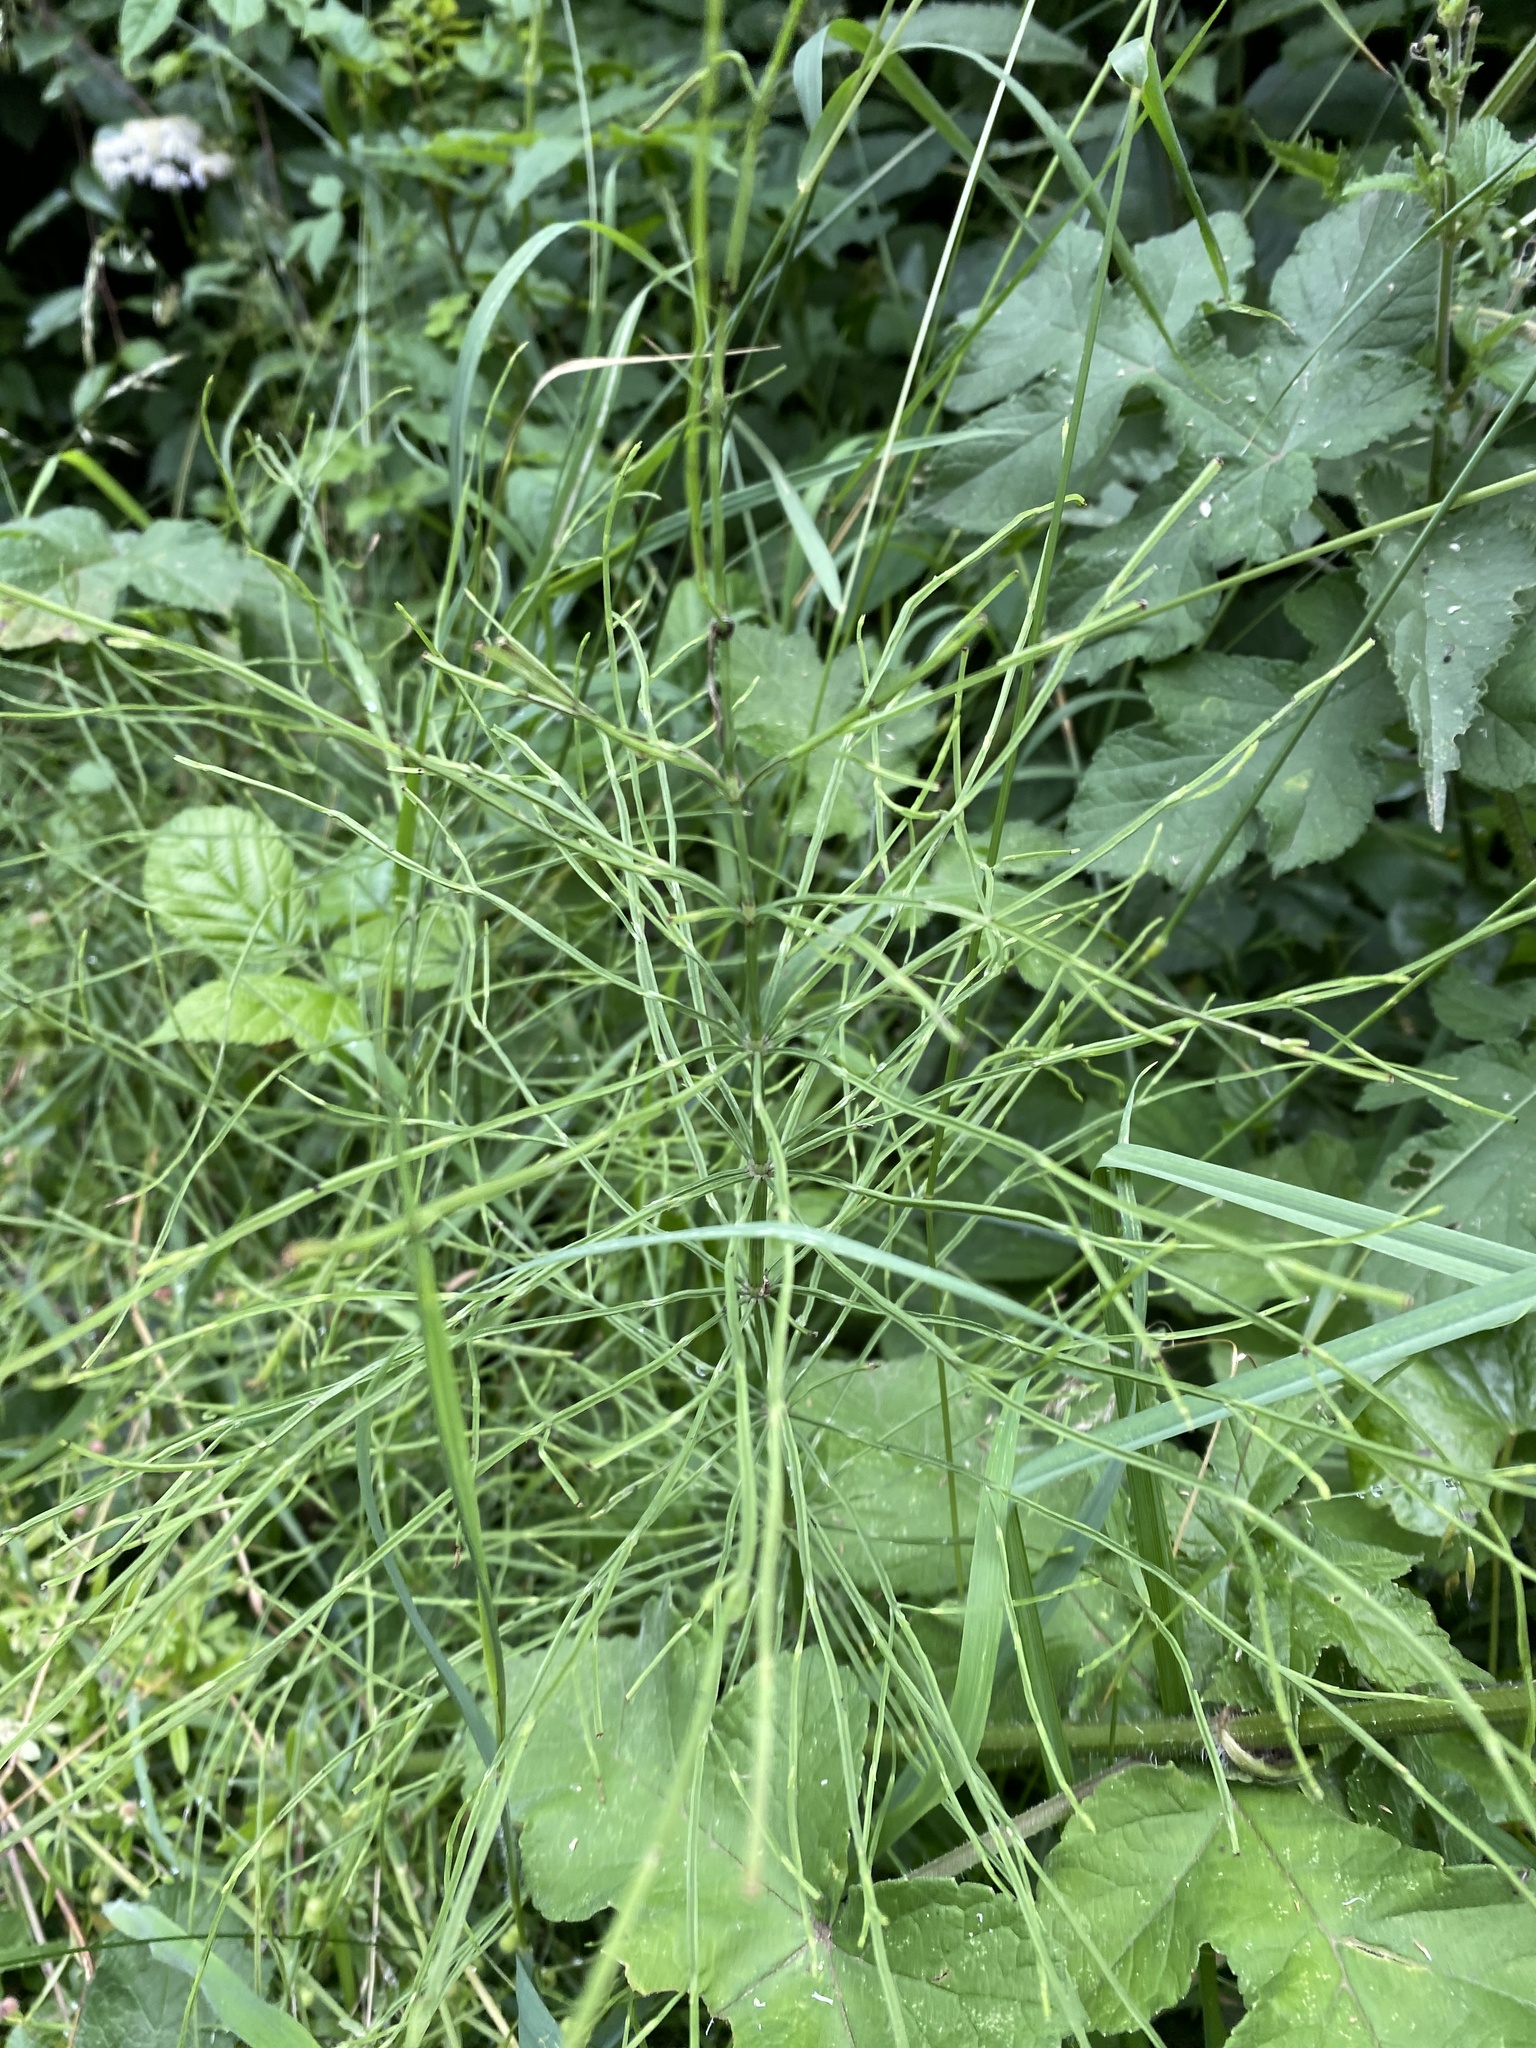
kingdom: Plantae
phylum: Tracheophyta
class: Polypodiopsida
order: Equisetales
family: Equisetaceae
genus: Equisetum
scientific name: Equisetum arvense
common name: Field horsetail
